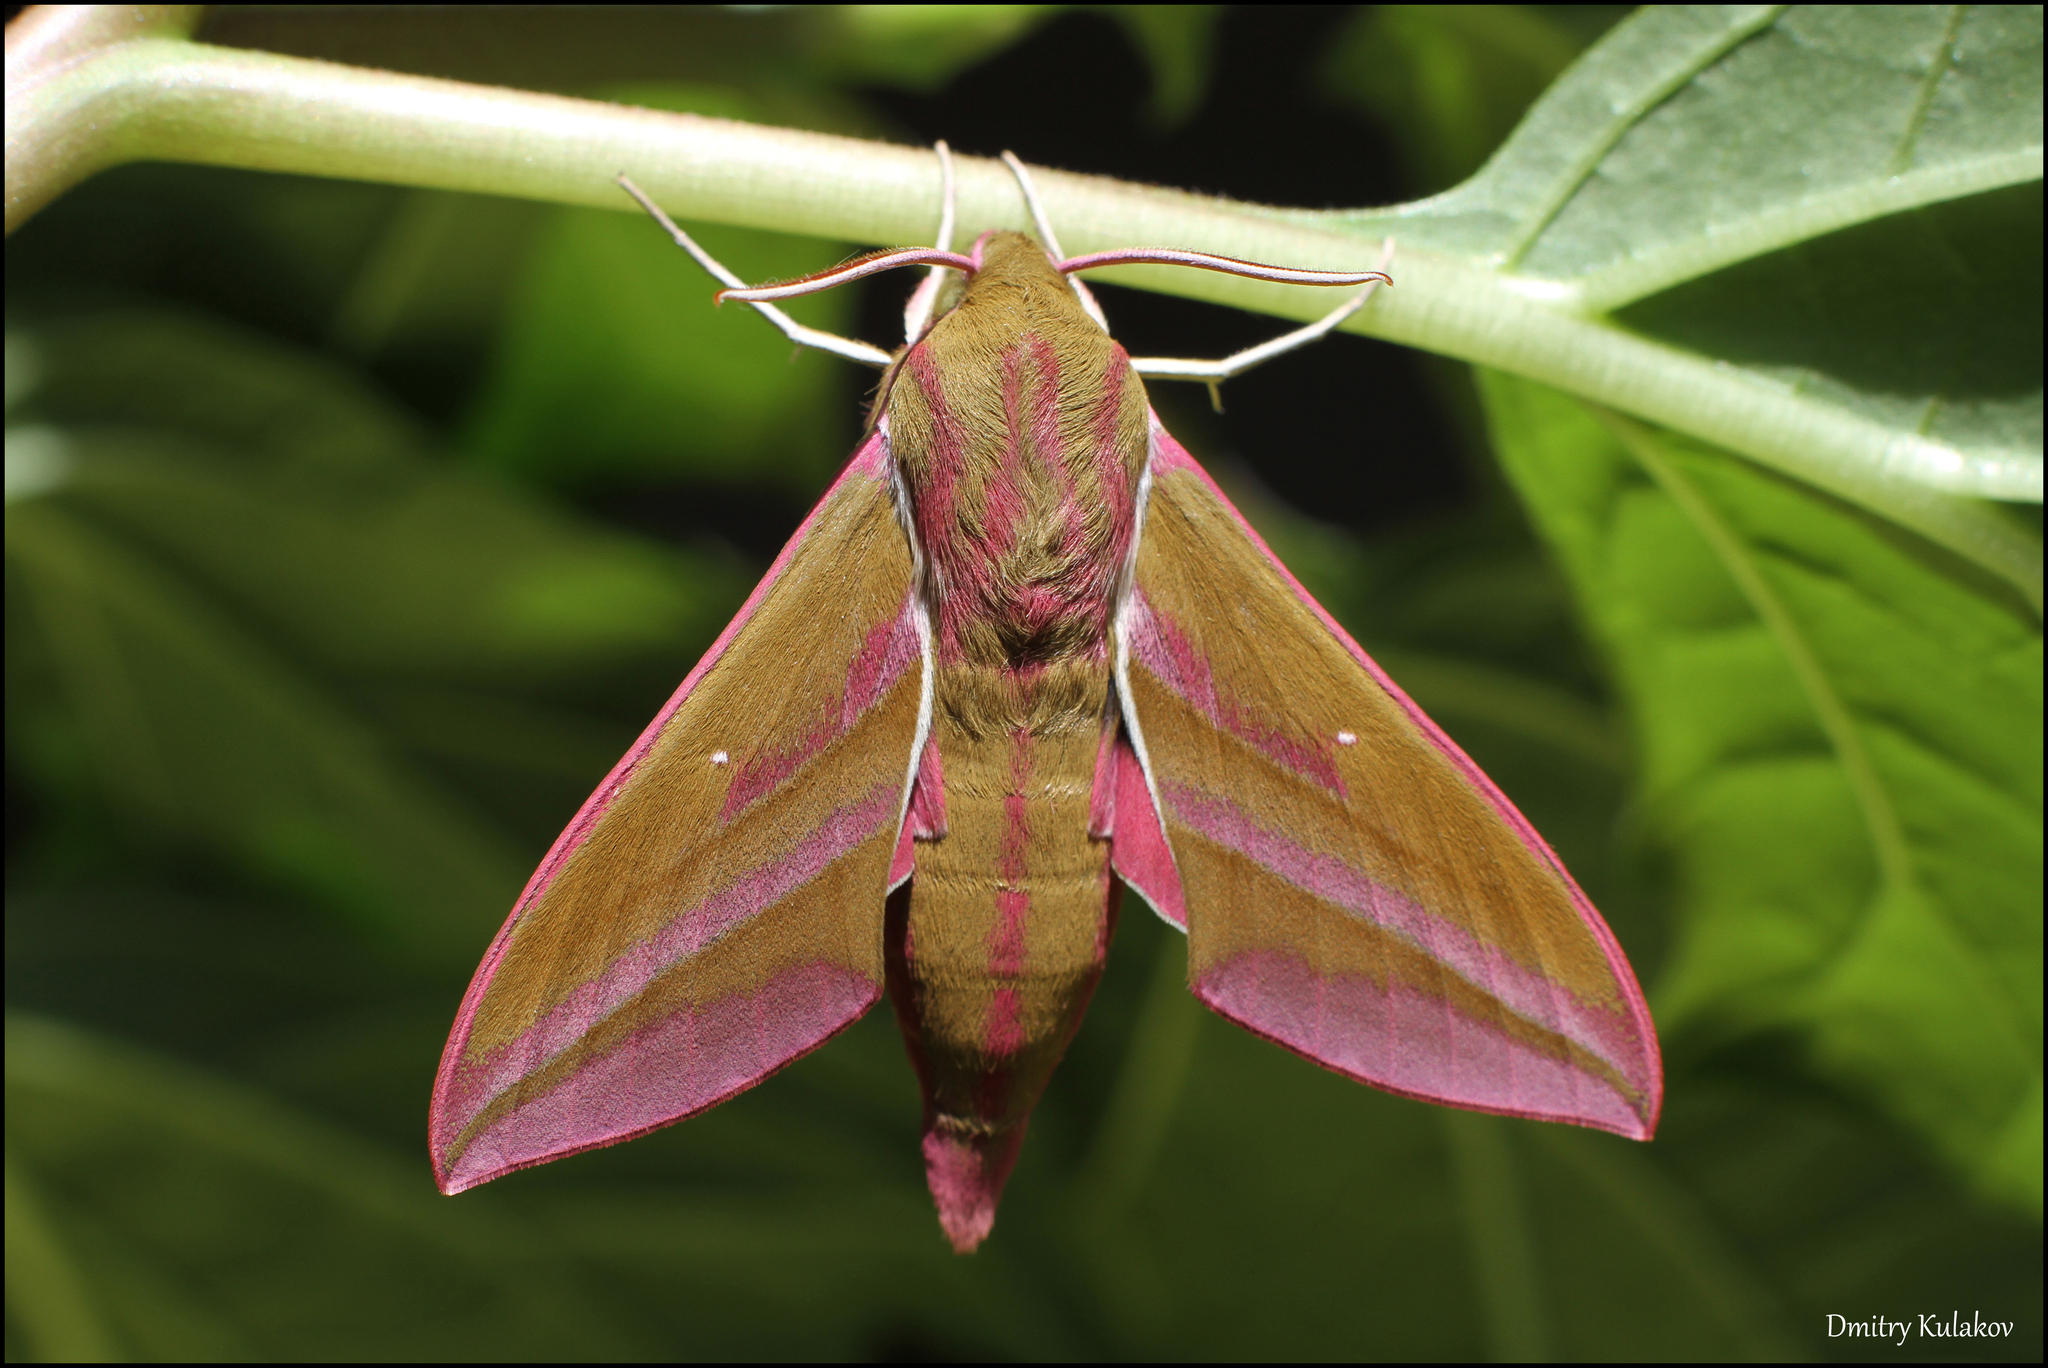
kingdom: Animalia
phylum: Arthropoda
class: Insecta
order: Lepidoptera
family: Sphingidae
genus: Deilephila
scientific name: Deilephila elpenor
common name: Elephant hawk-moth
